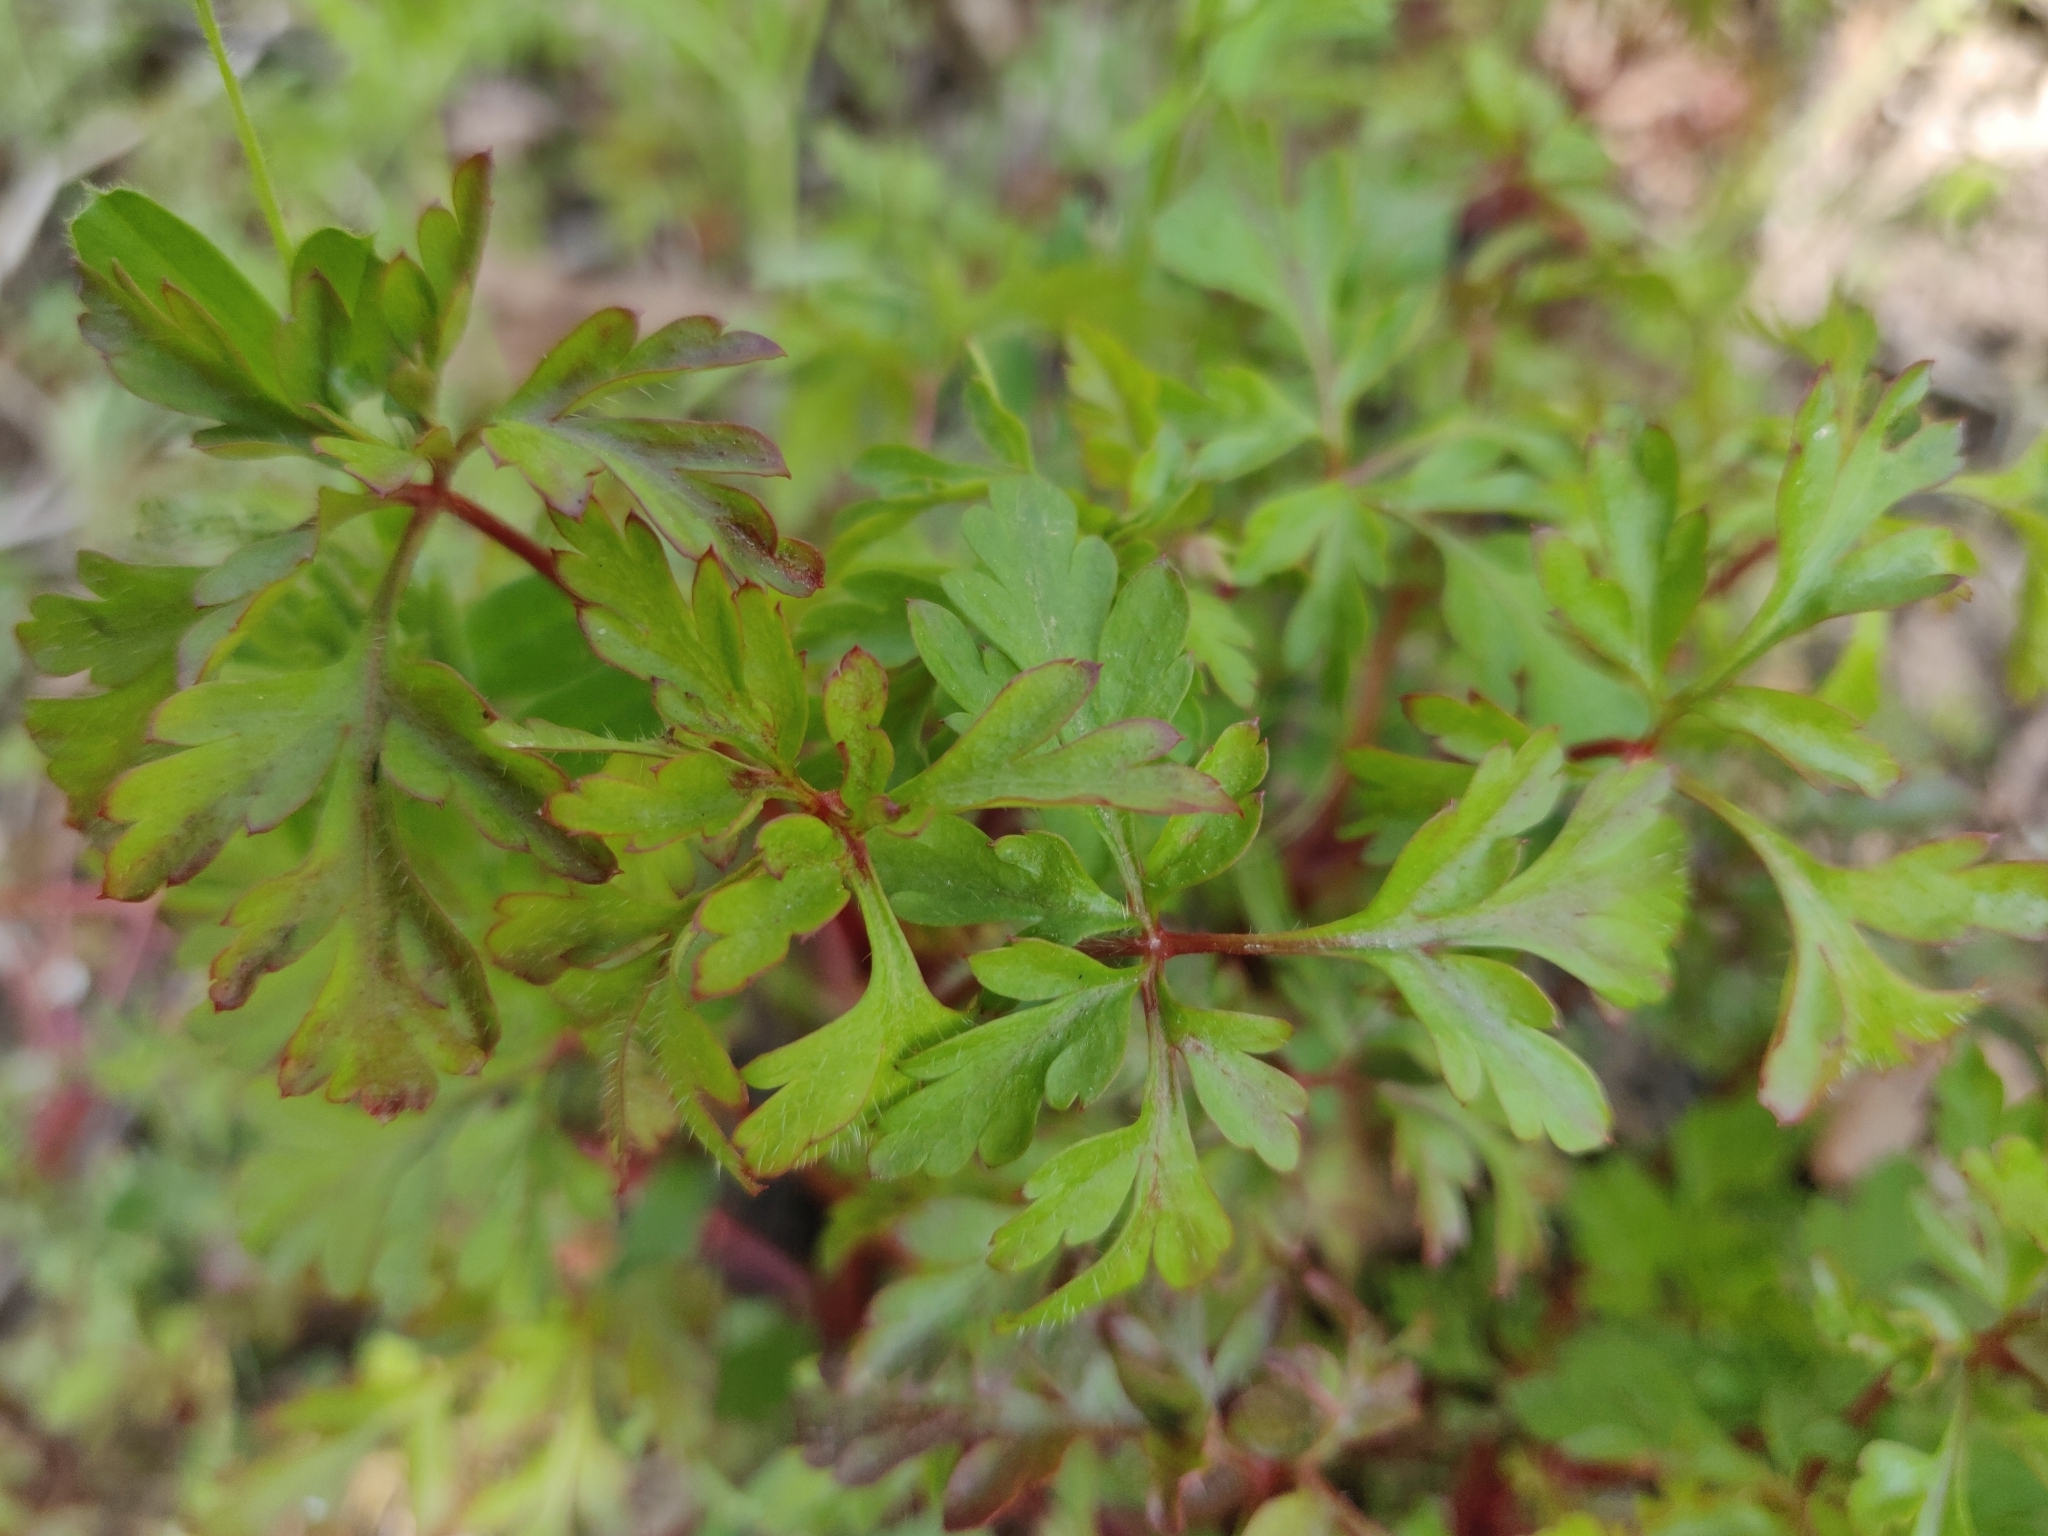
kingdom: Plantae
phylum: Tracheophyta
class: Magnoliopsida
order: Geraniales
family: Geraniaceae
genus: Geranium
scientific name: Geranium robertianum
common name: Herb-robert
